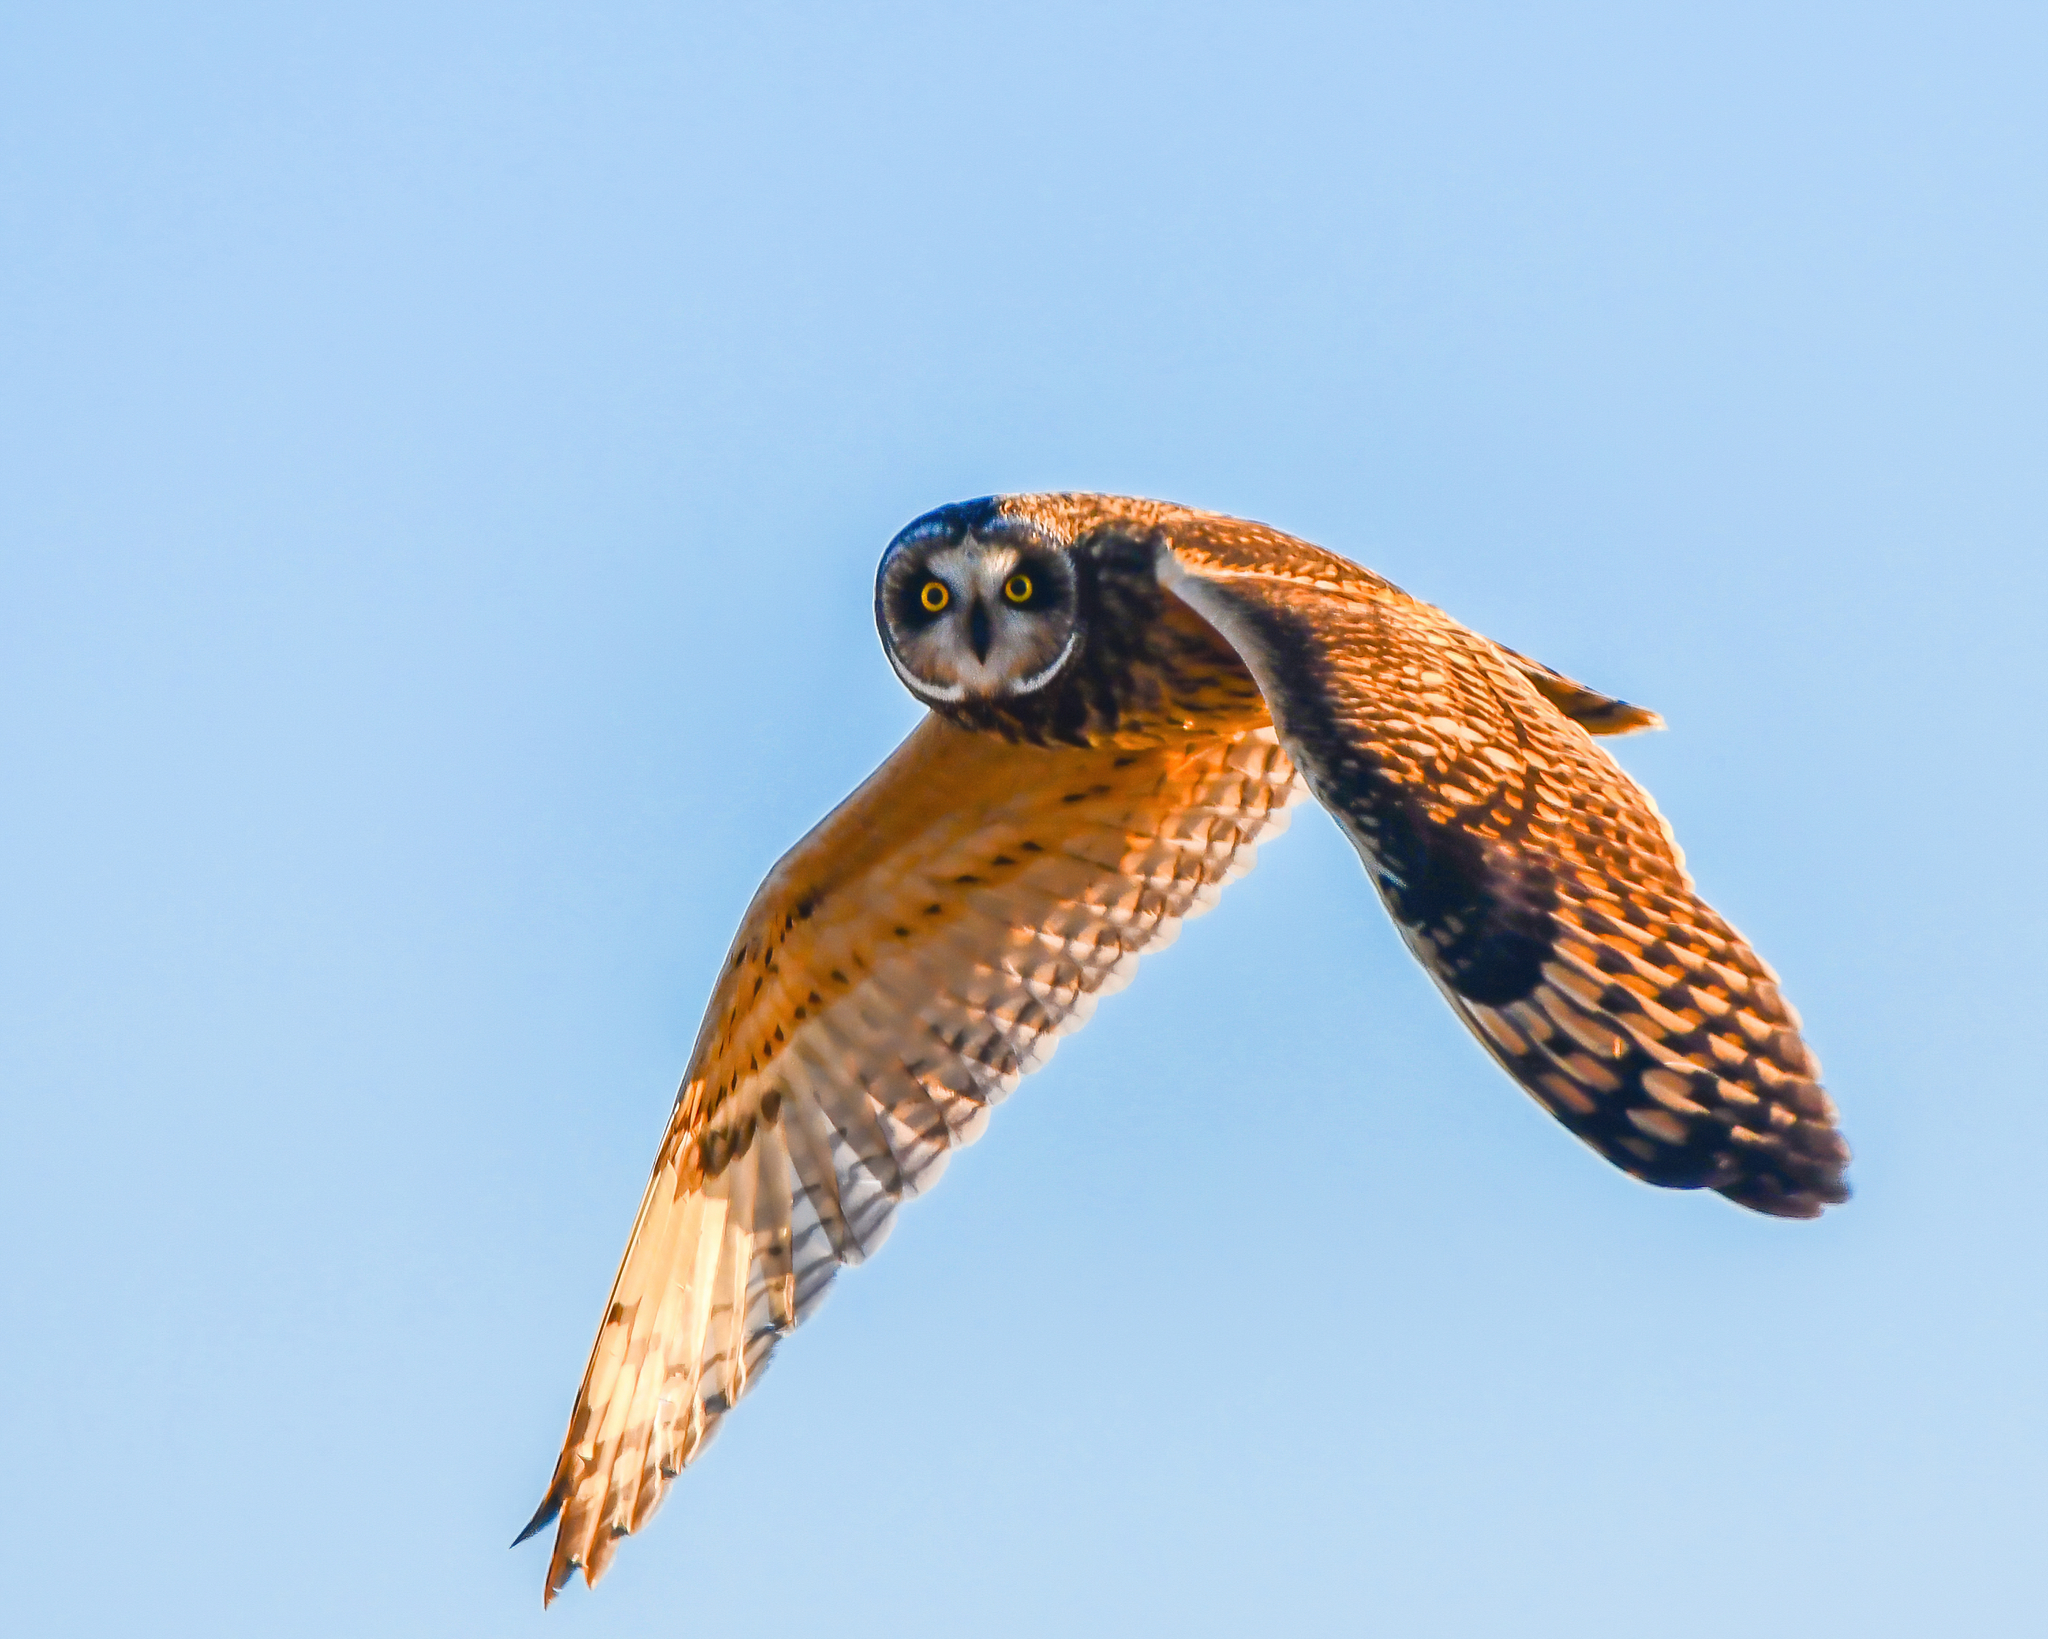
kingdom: Animalia
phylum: Chordata
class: Aves
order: Strigiformes
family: Strigidae
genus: Asio
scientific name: Asio flammeus
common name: Short-eared owl
